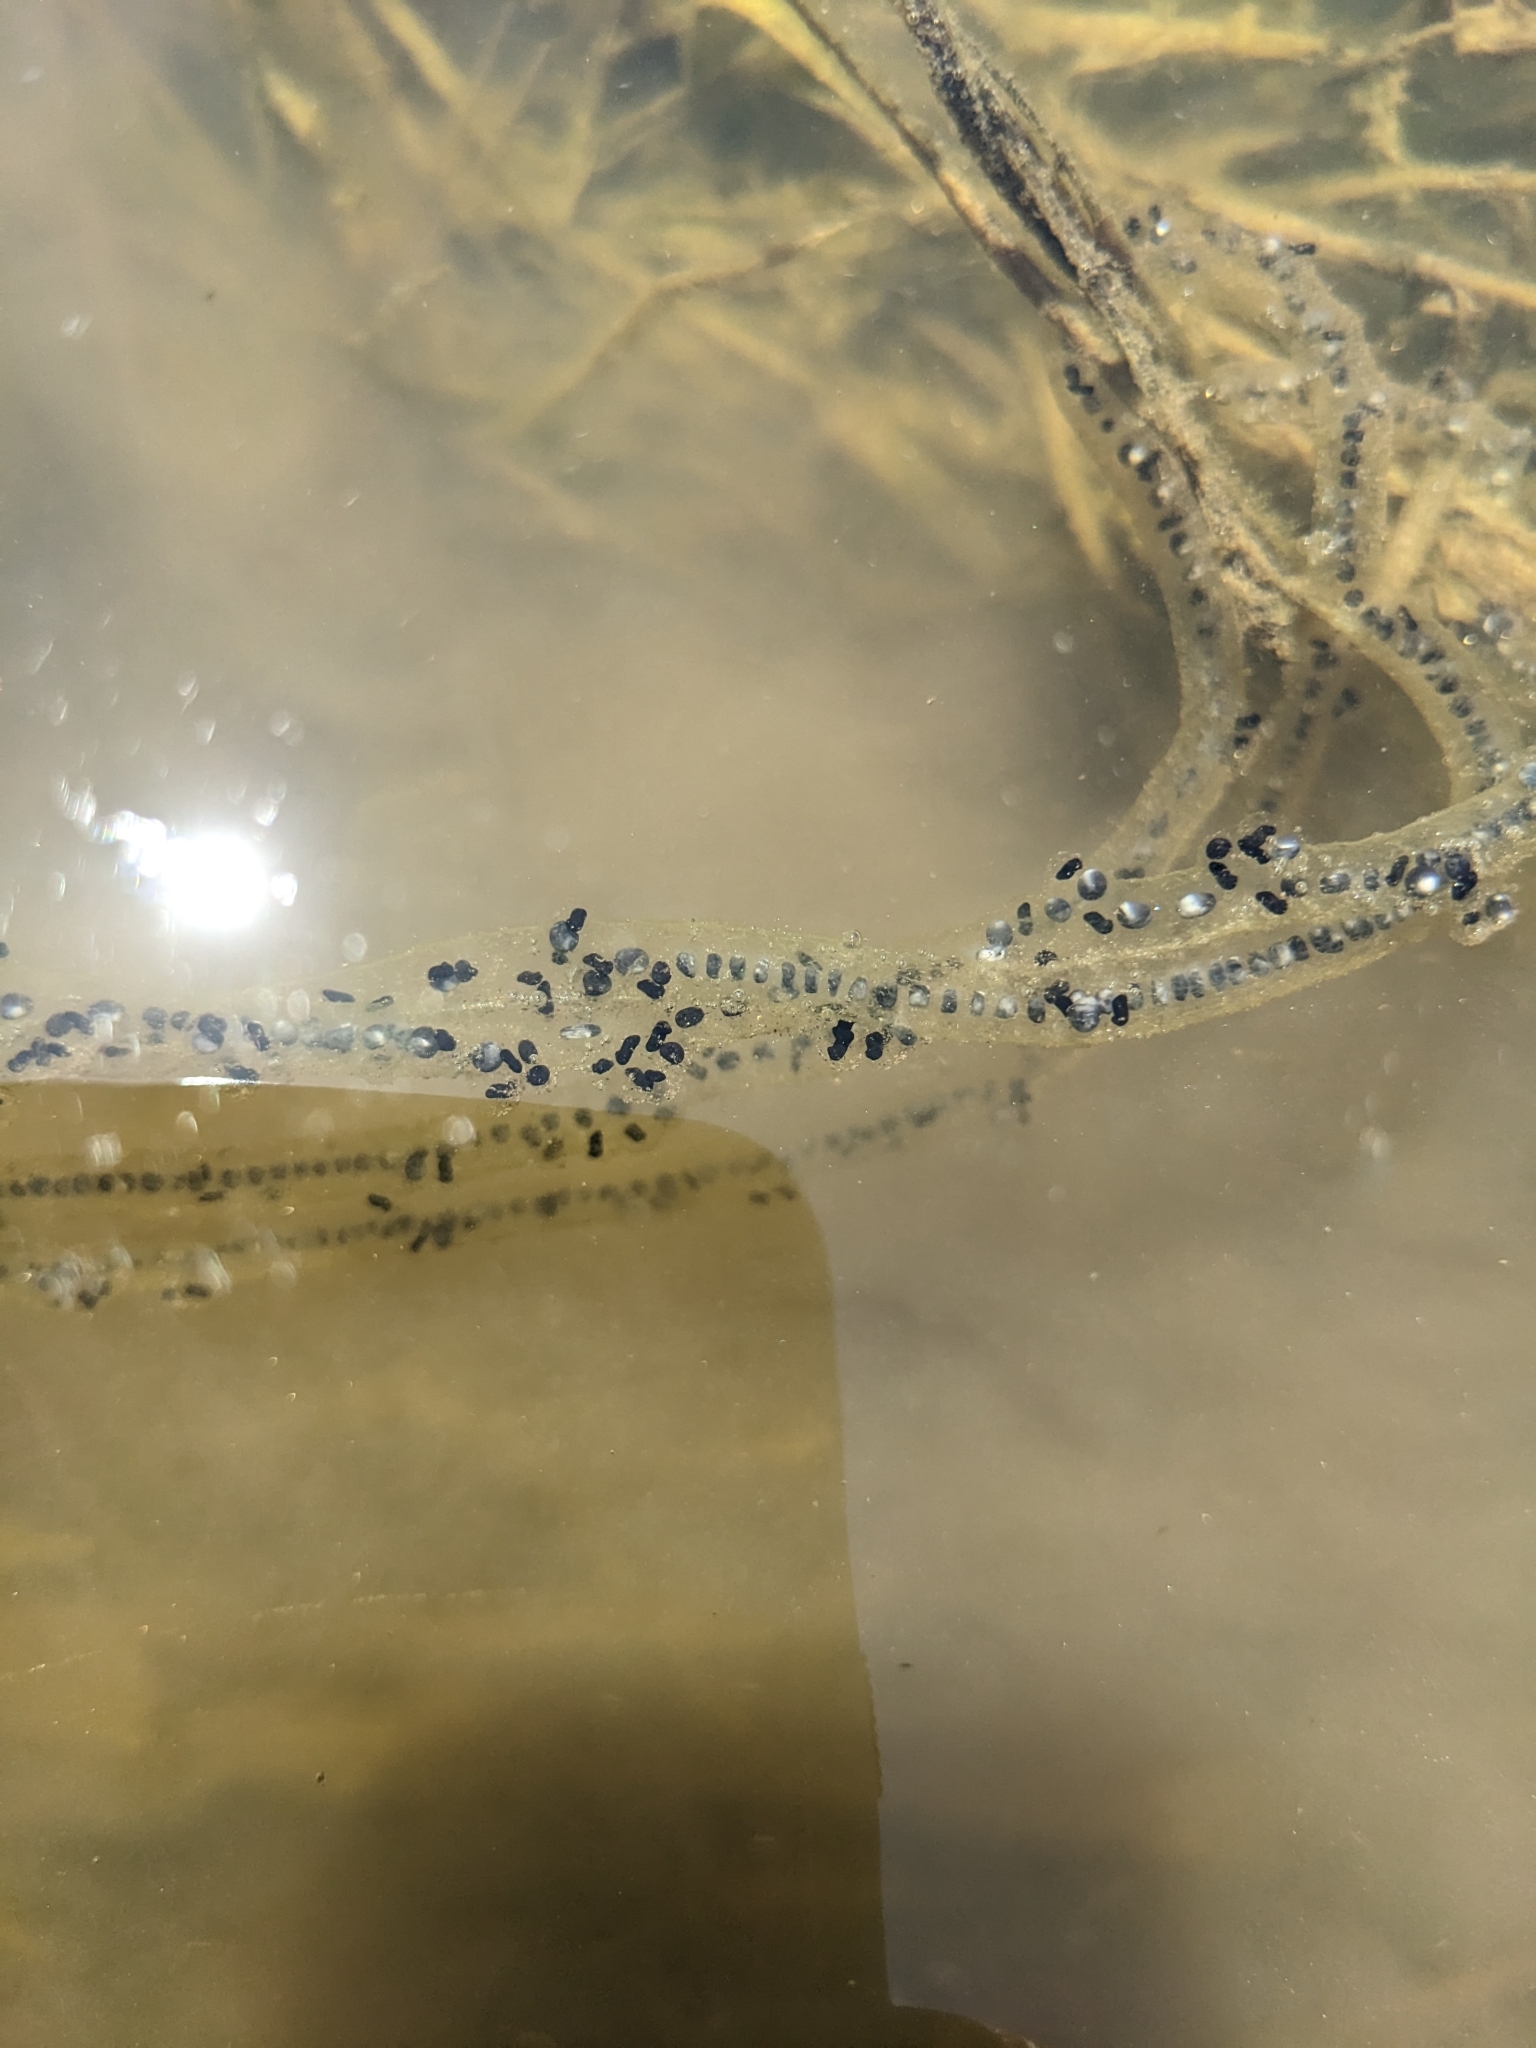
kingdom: Animalia
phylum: Chordata
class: Amphibia
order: Anura
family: Bufonidae
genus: Anaxyrus
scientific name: Anaxyrus boreas
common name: Western toad
